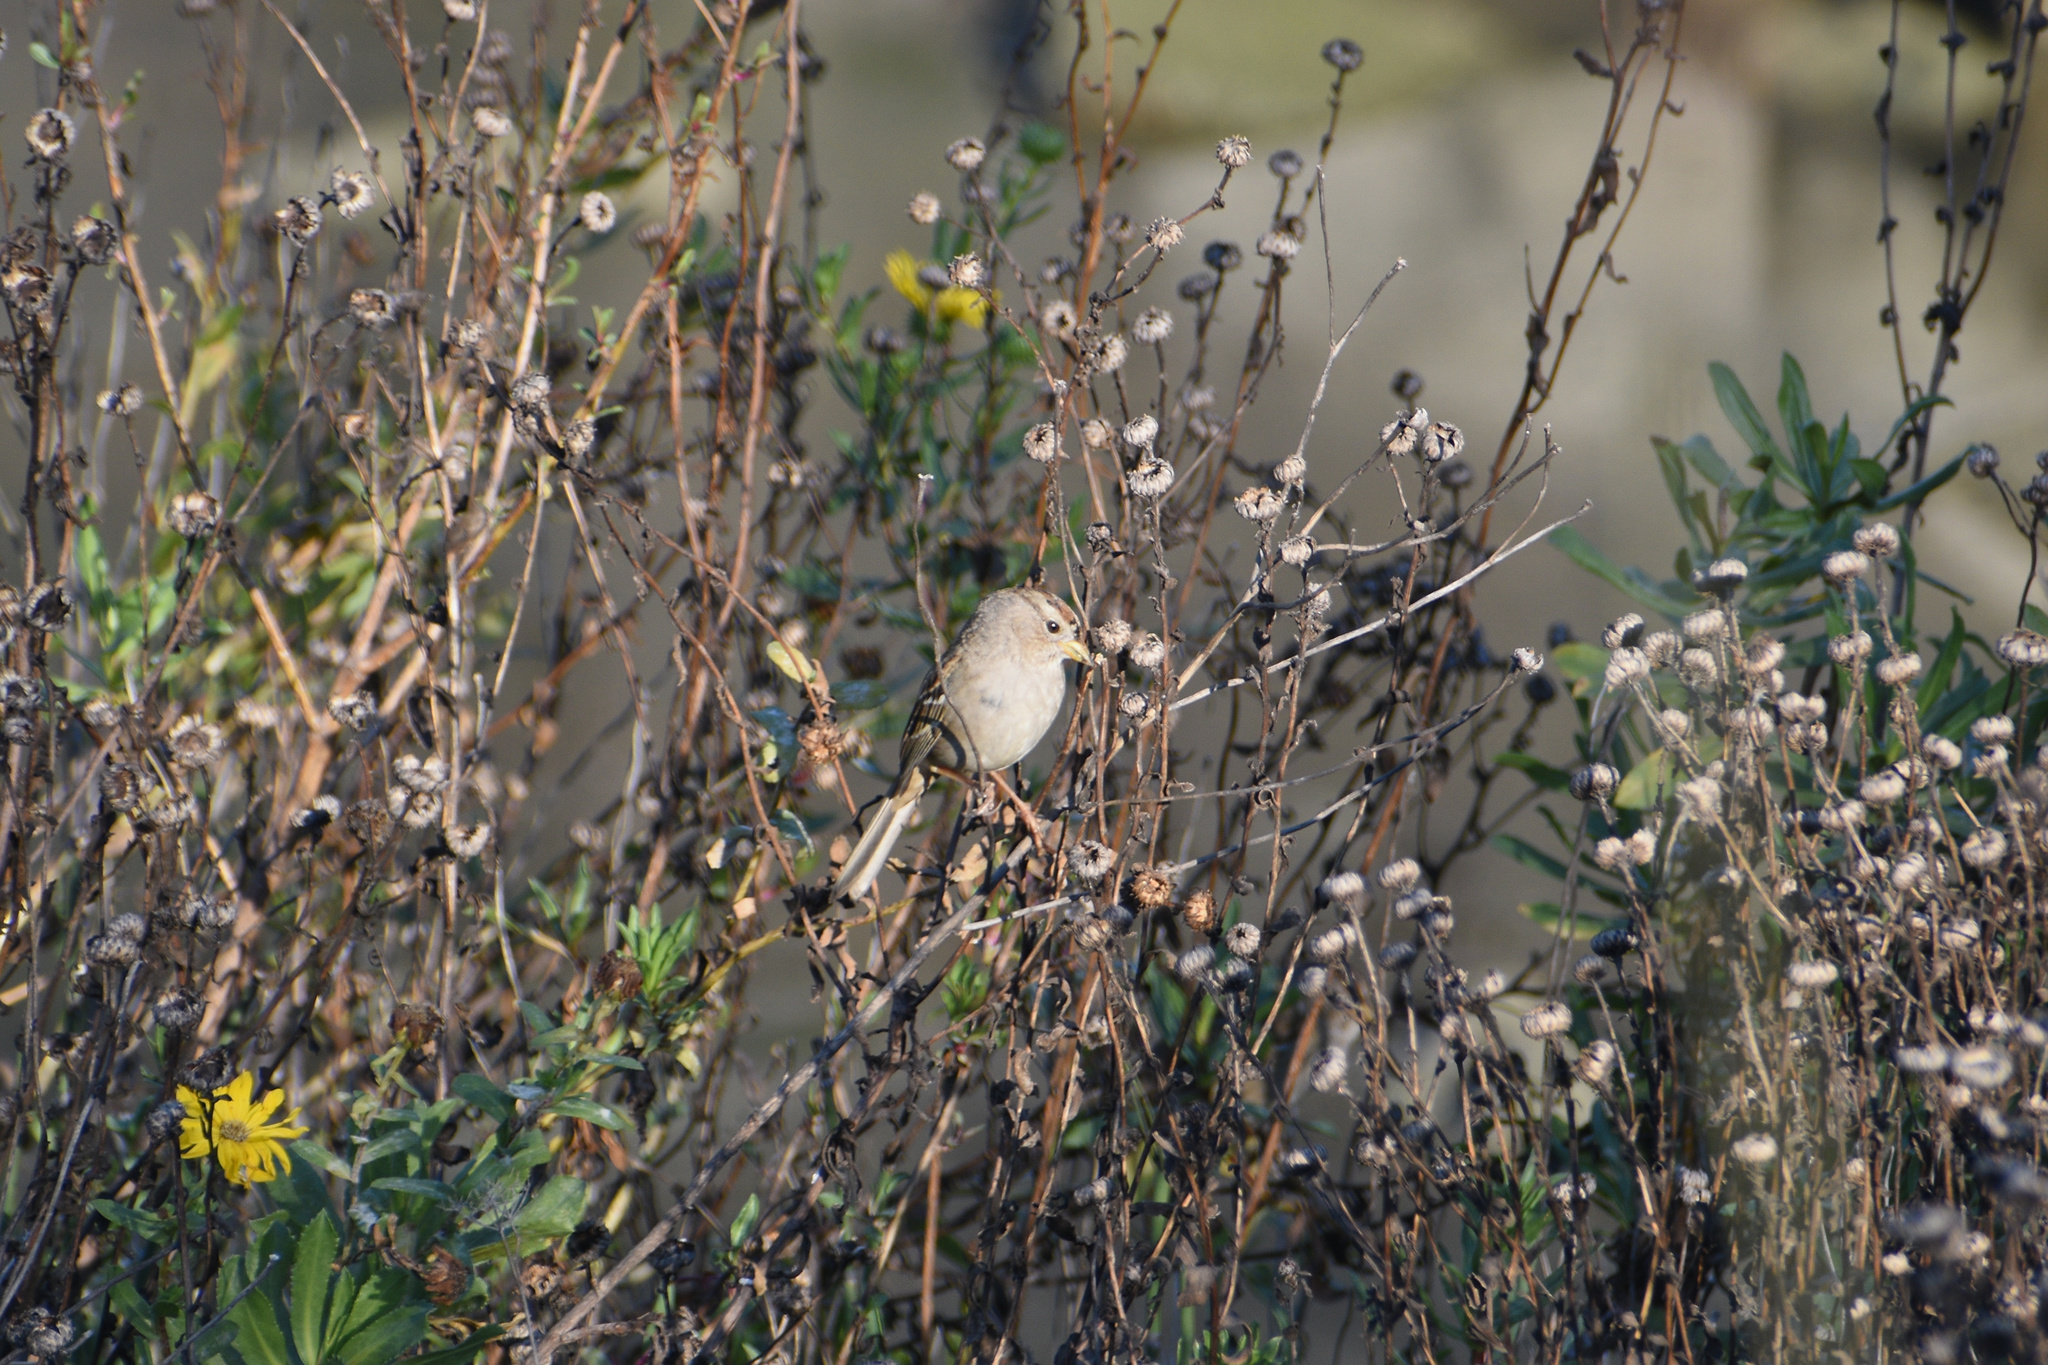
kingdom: Animalia
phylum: Chordata
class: Aves
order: Passeriformes
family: Passerellidae
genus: Zonotrichia
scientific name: Zonotrichia leucophrys
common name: White-crowned sparrow
